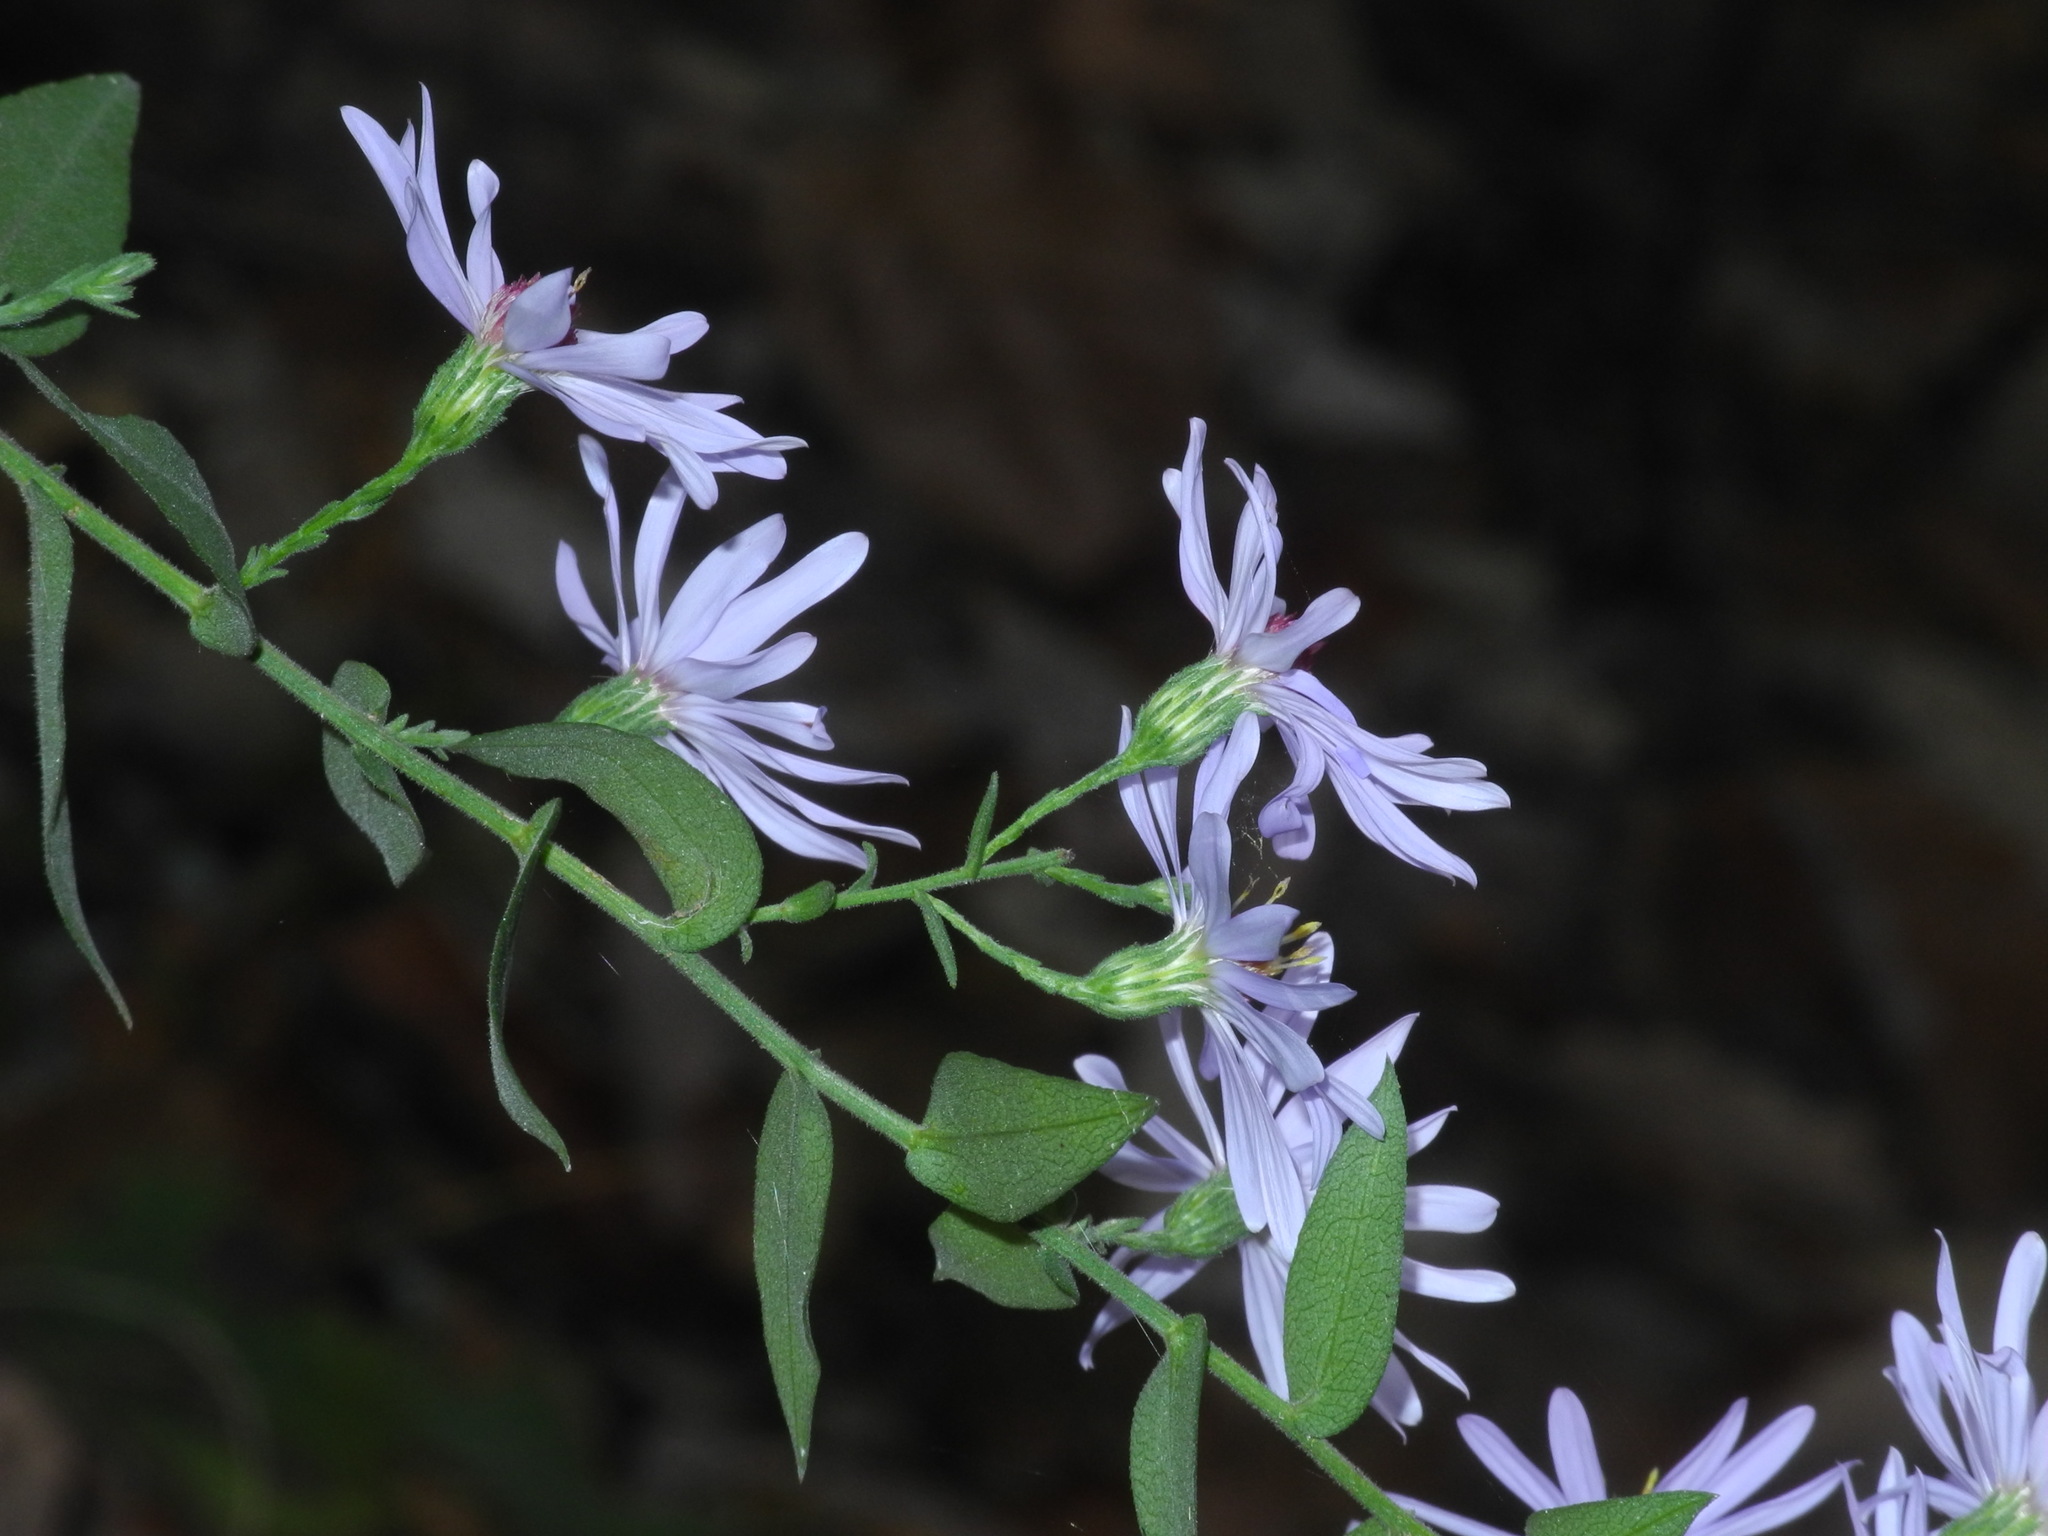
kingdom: Plantae
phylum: Tracheophyta
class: Magnoliopsida
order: Asterales
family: Asteraceae
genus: Symphyotrichum
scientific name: Symphyotrichum undulatum
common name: Clasping heart-leaf aster
